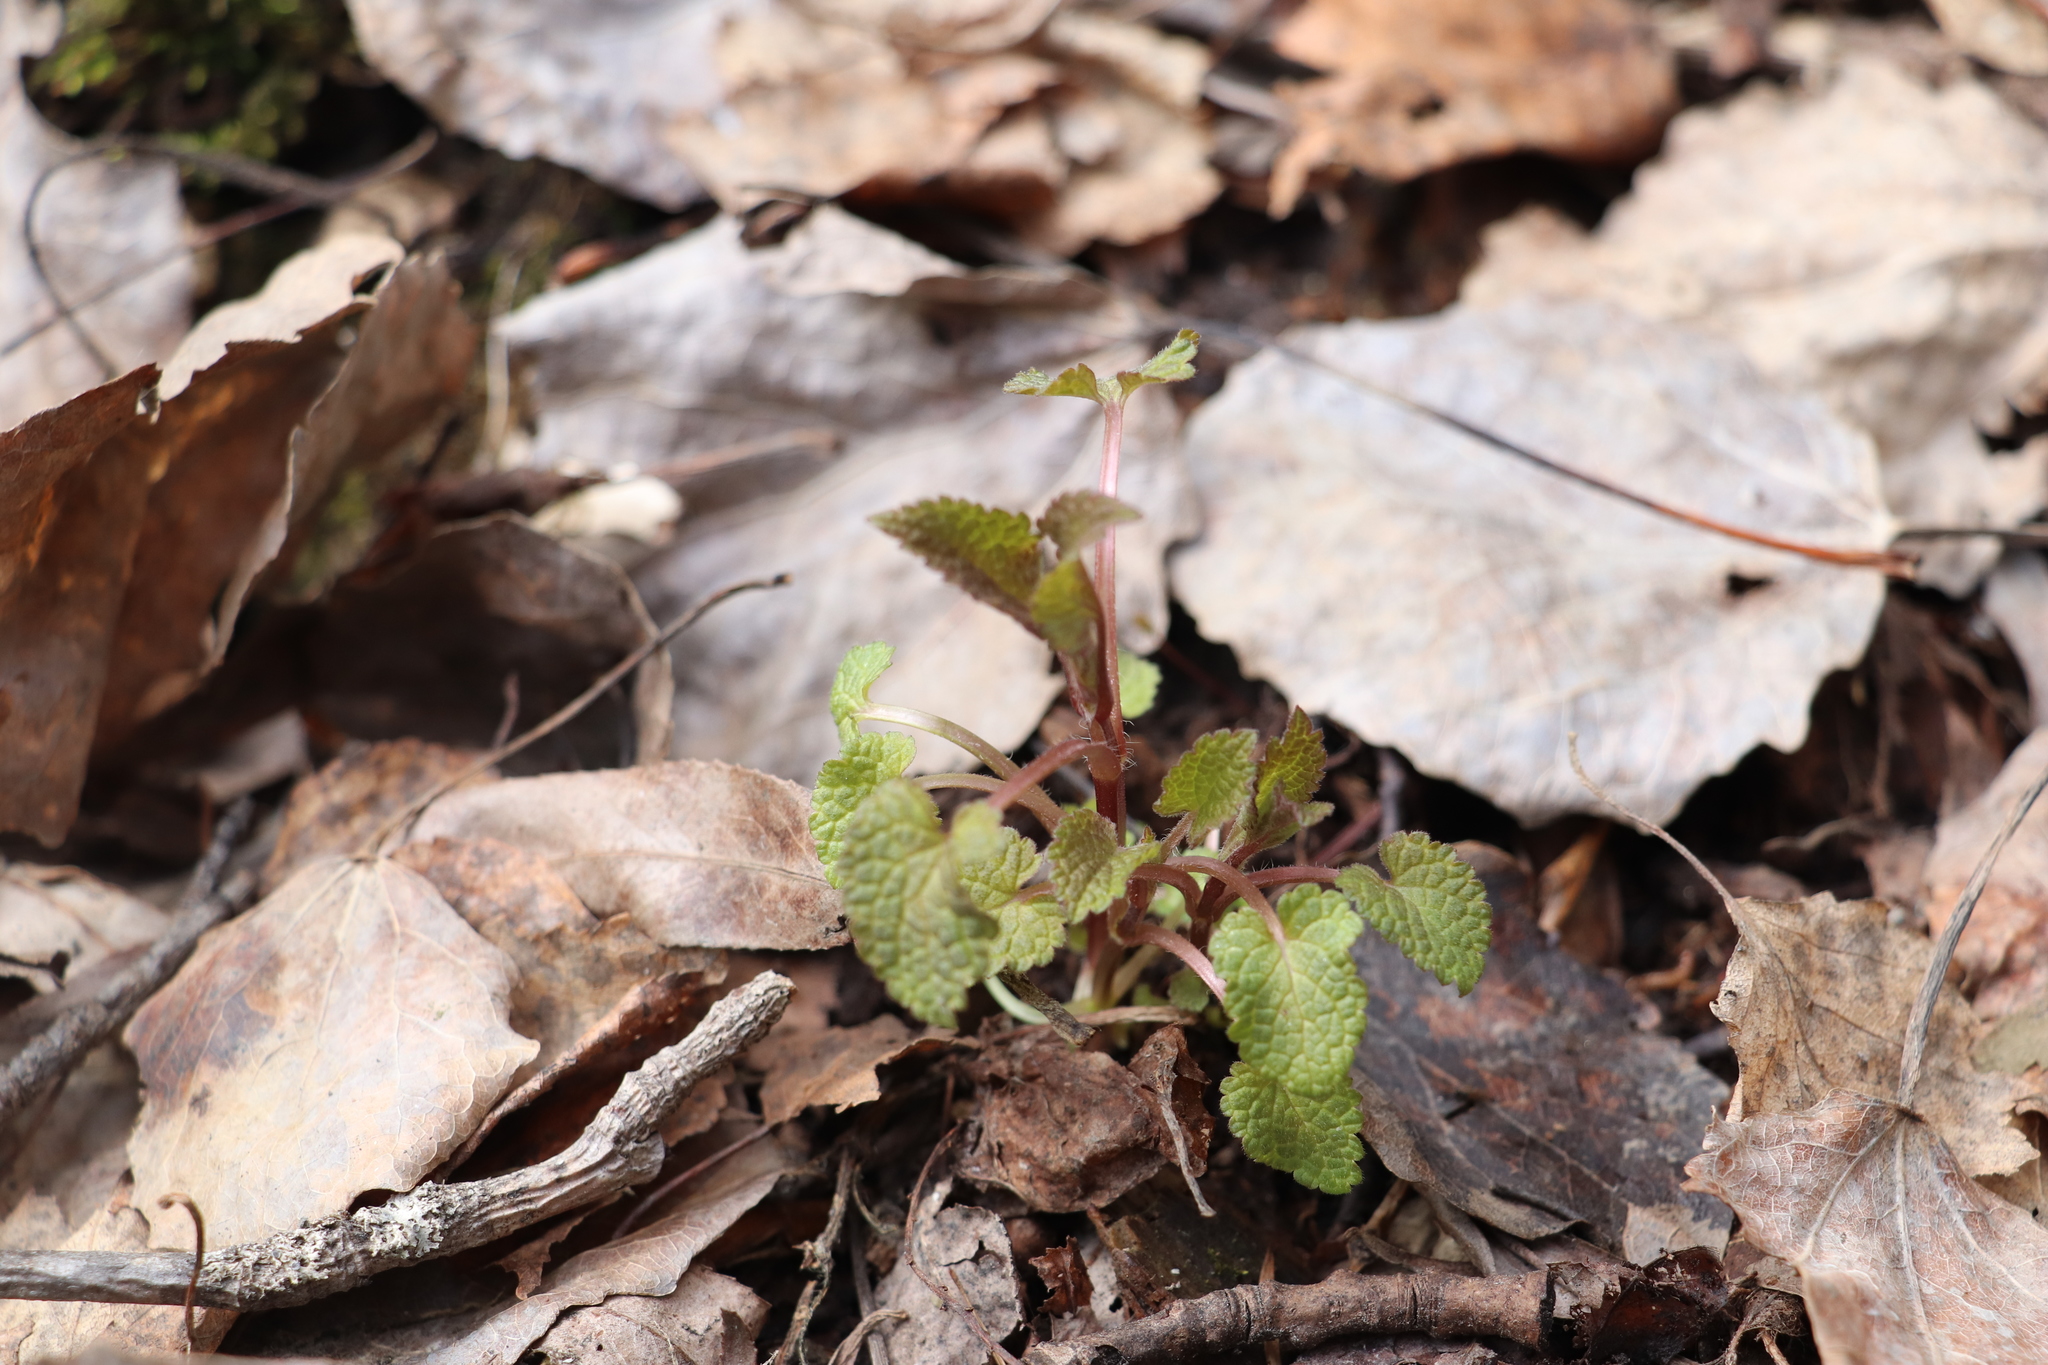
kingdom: Plantae
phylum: Tracheophyta
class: Magnoliopsida
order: Lamiales
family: Lamiaceae
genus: Lamium
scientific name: Lamium album
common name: White dead-nettle
